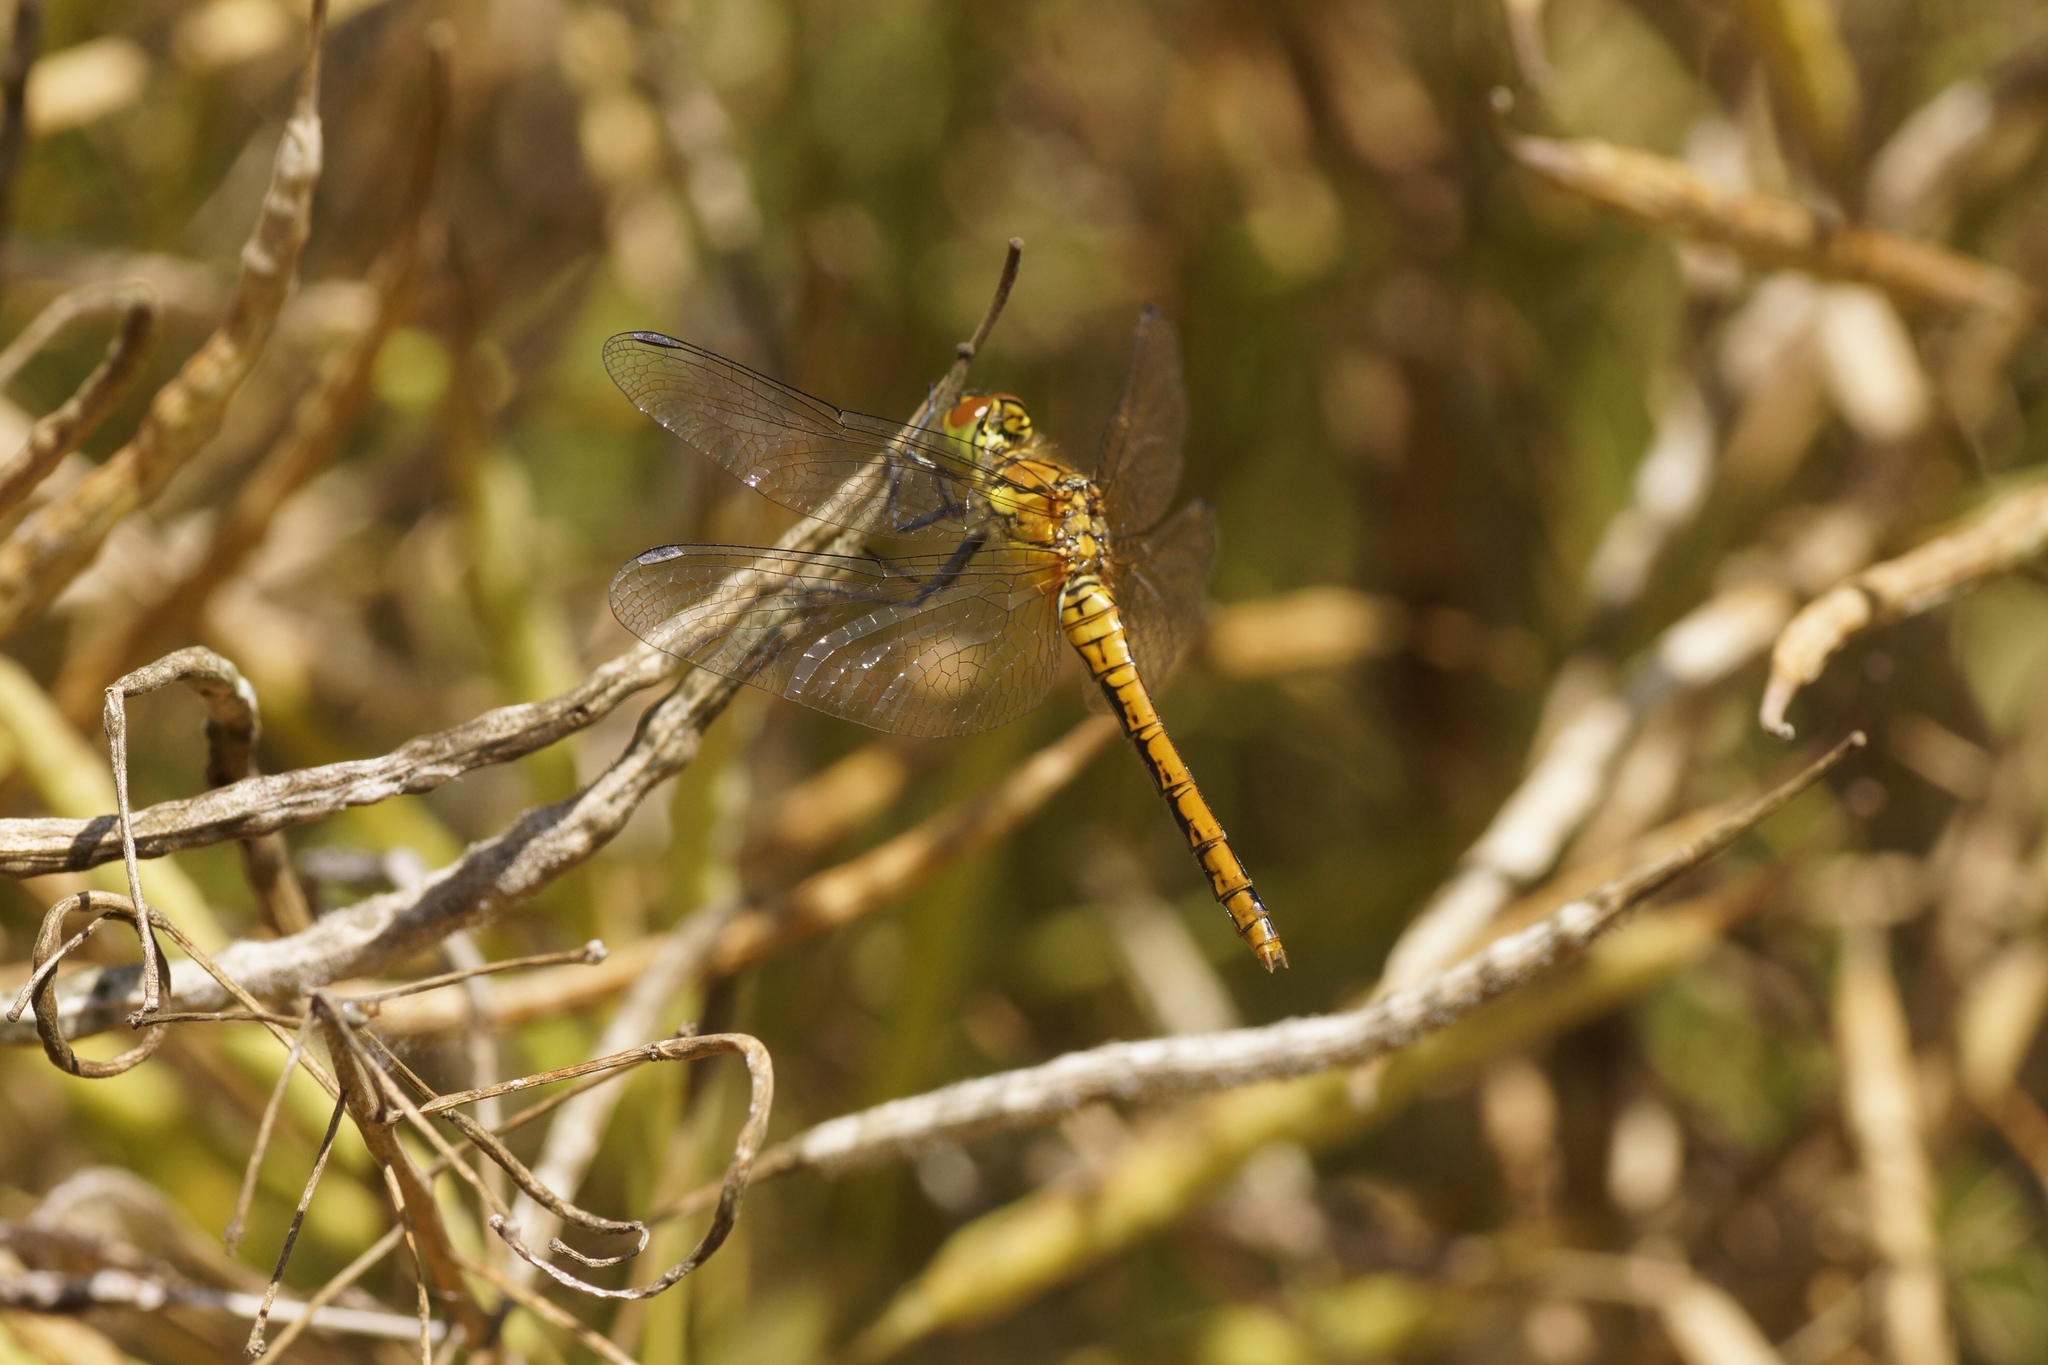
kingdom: Animalia
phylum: Arthropoda
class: Insecta
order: Odonata
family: Libellulidae
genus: Sympetrum
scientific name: Sympetrum sanguineum
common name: Ruddy darter
